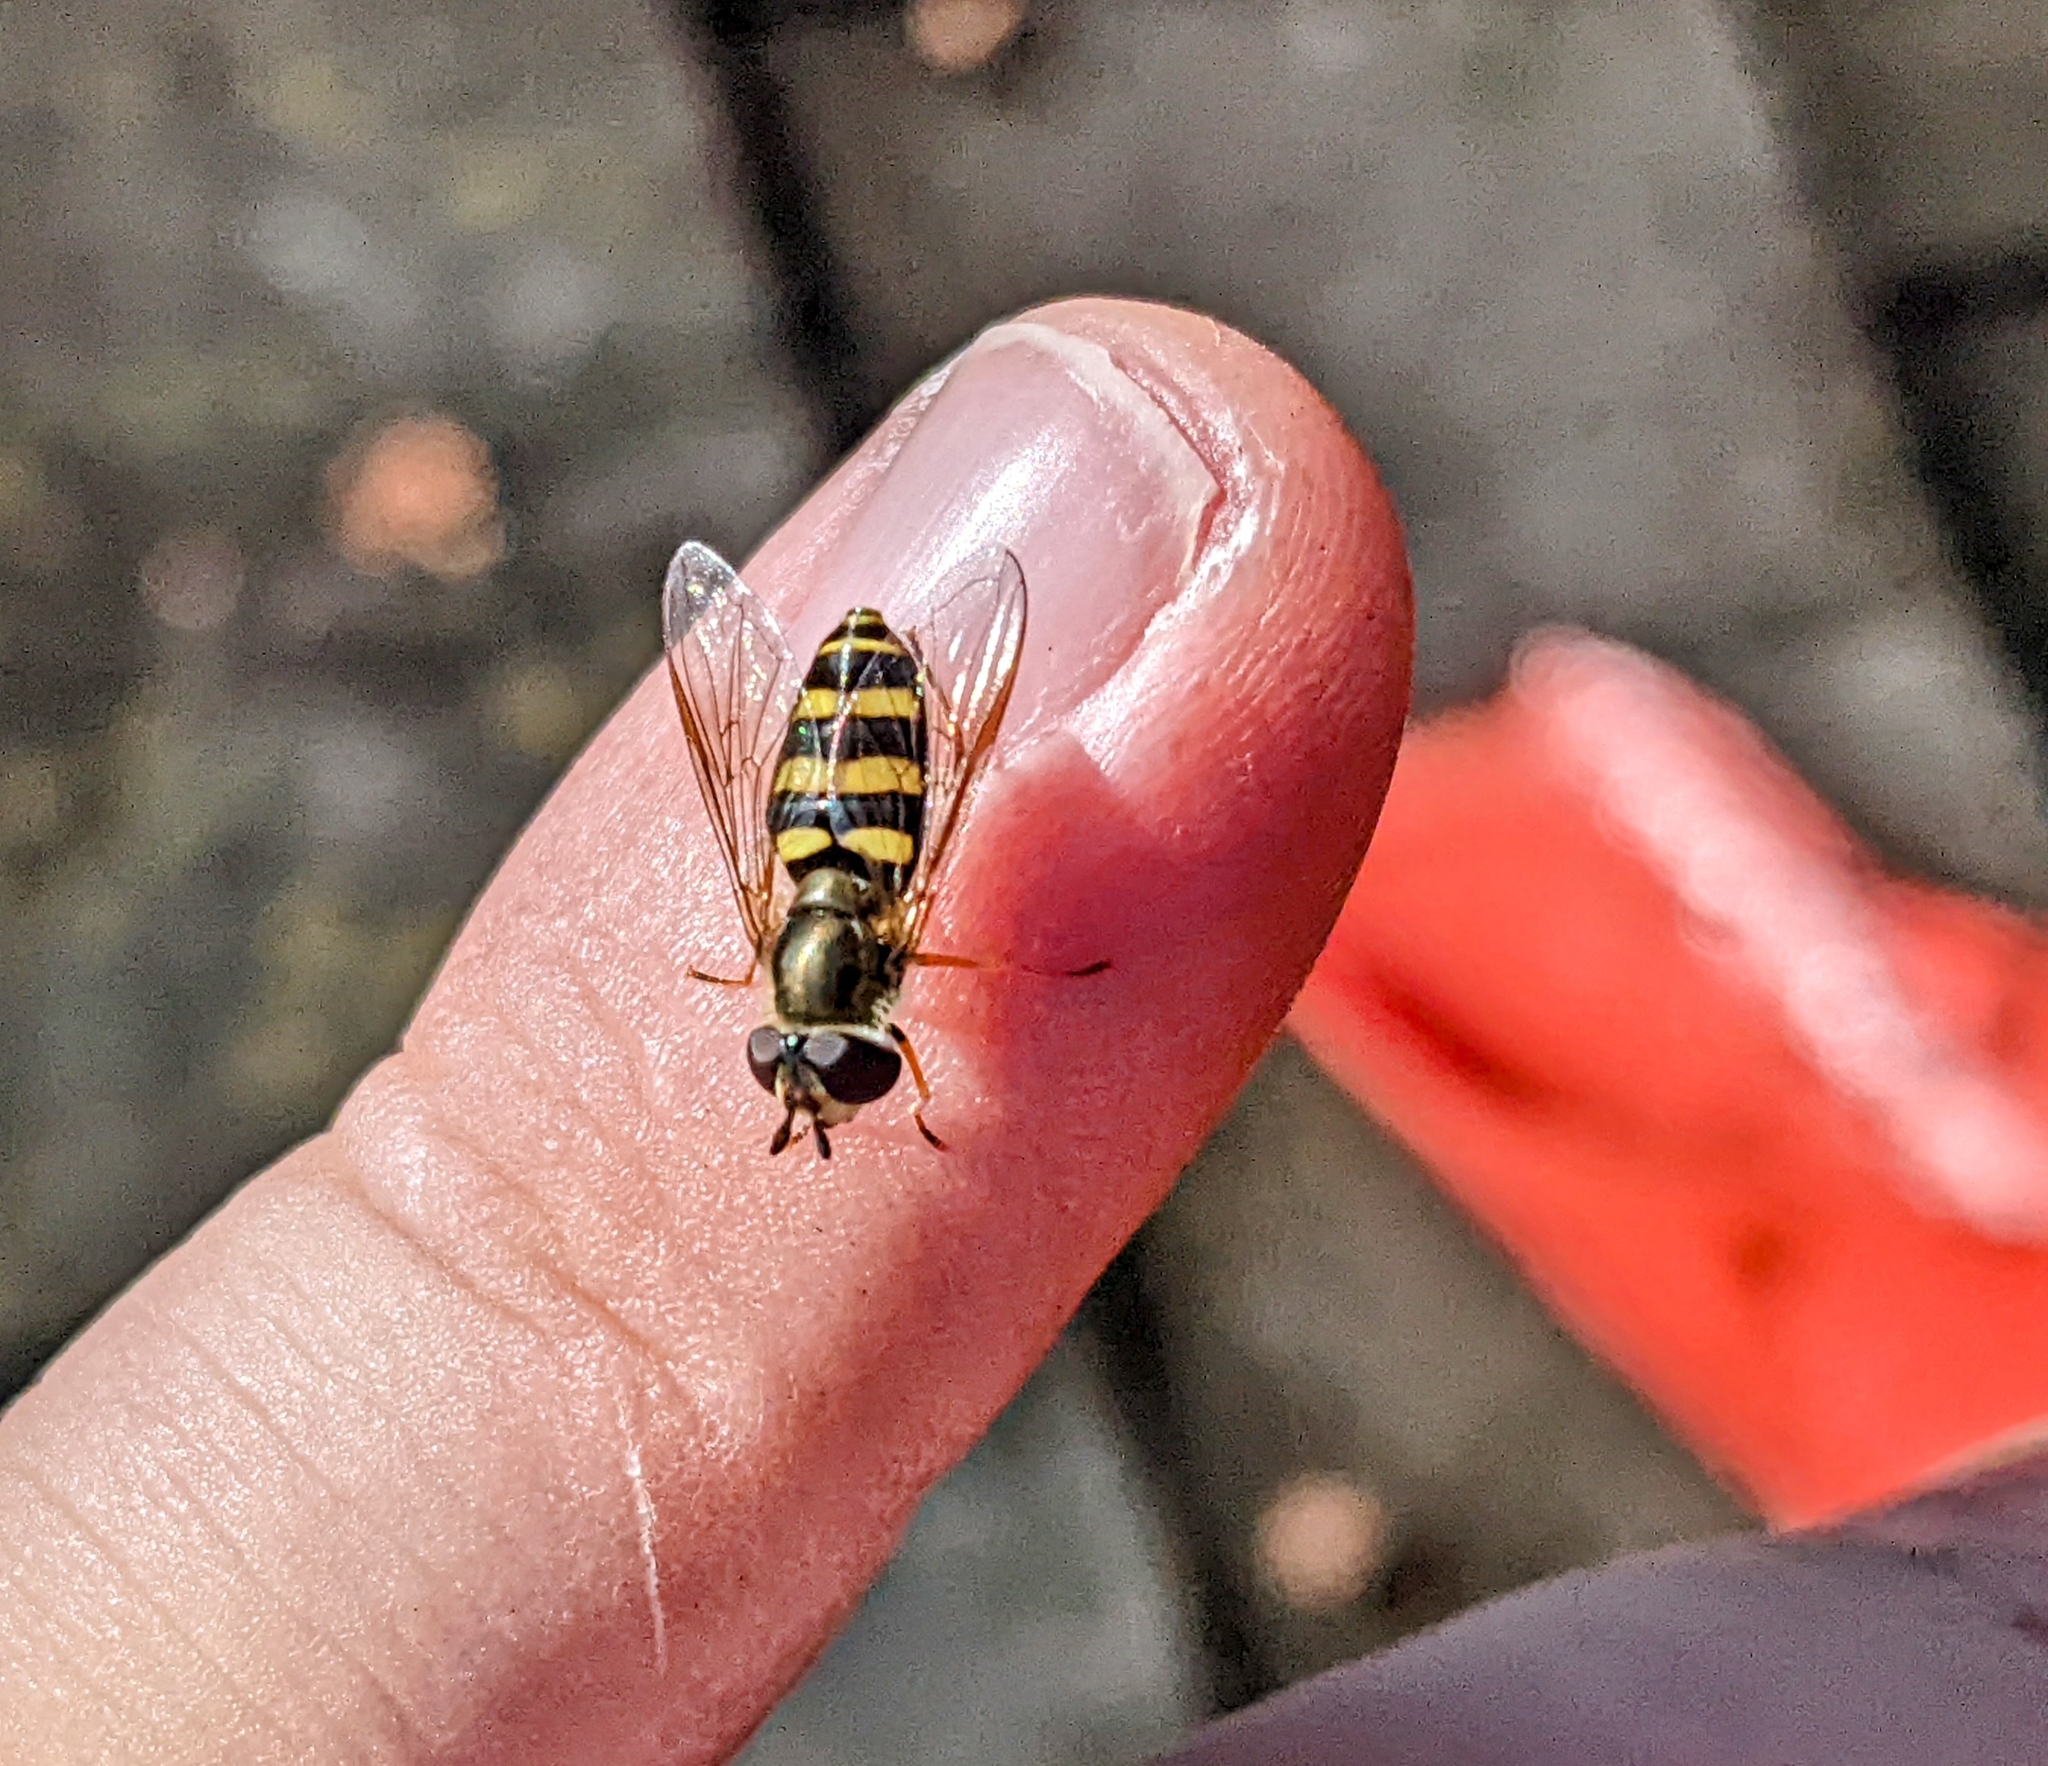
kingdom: Animalia
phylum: Arthropoda
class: Insecta
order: Diptera
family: Syrphidae
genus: Eupeodes
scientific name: Eupeodes
